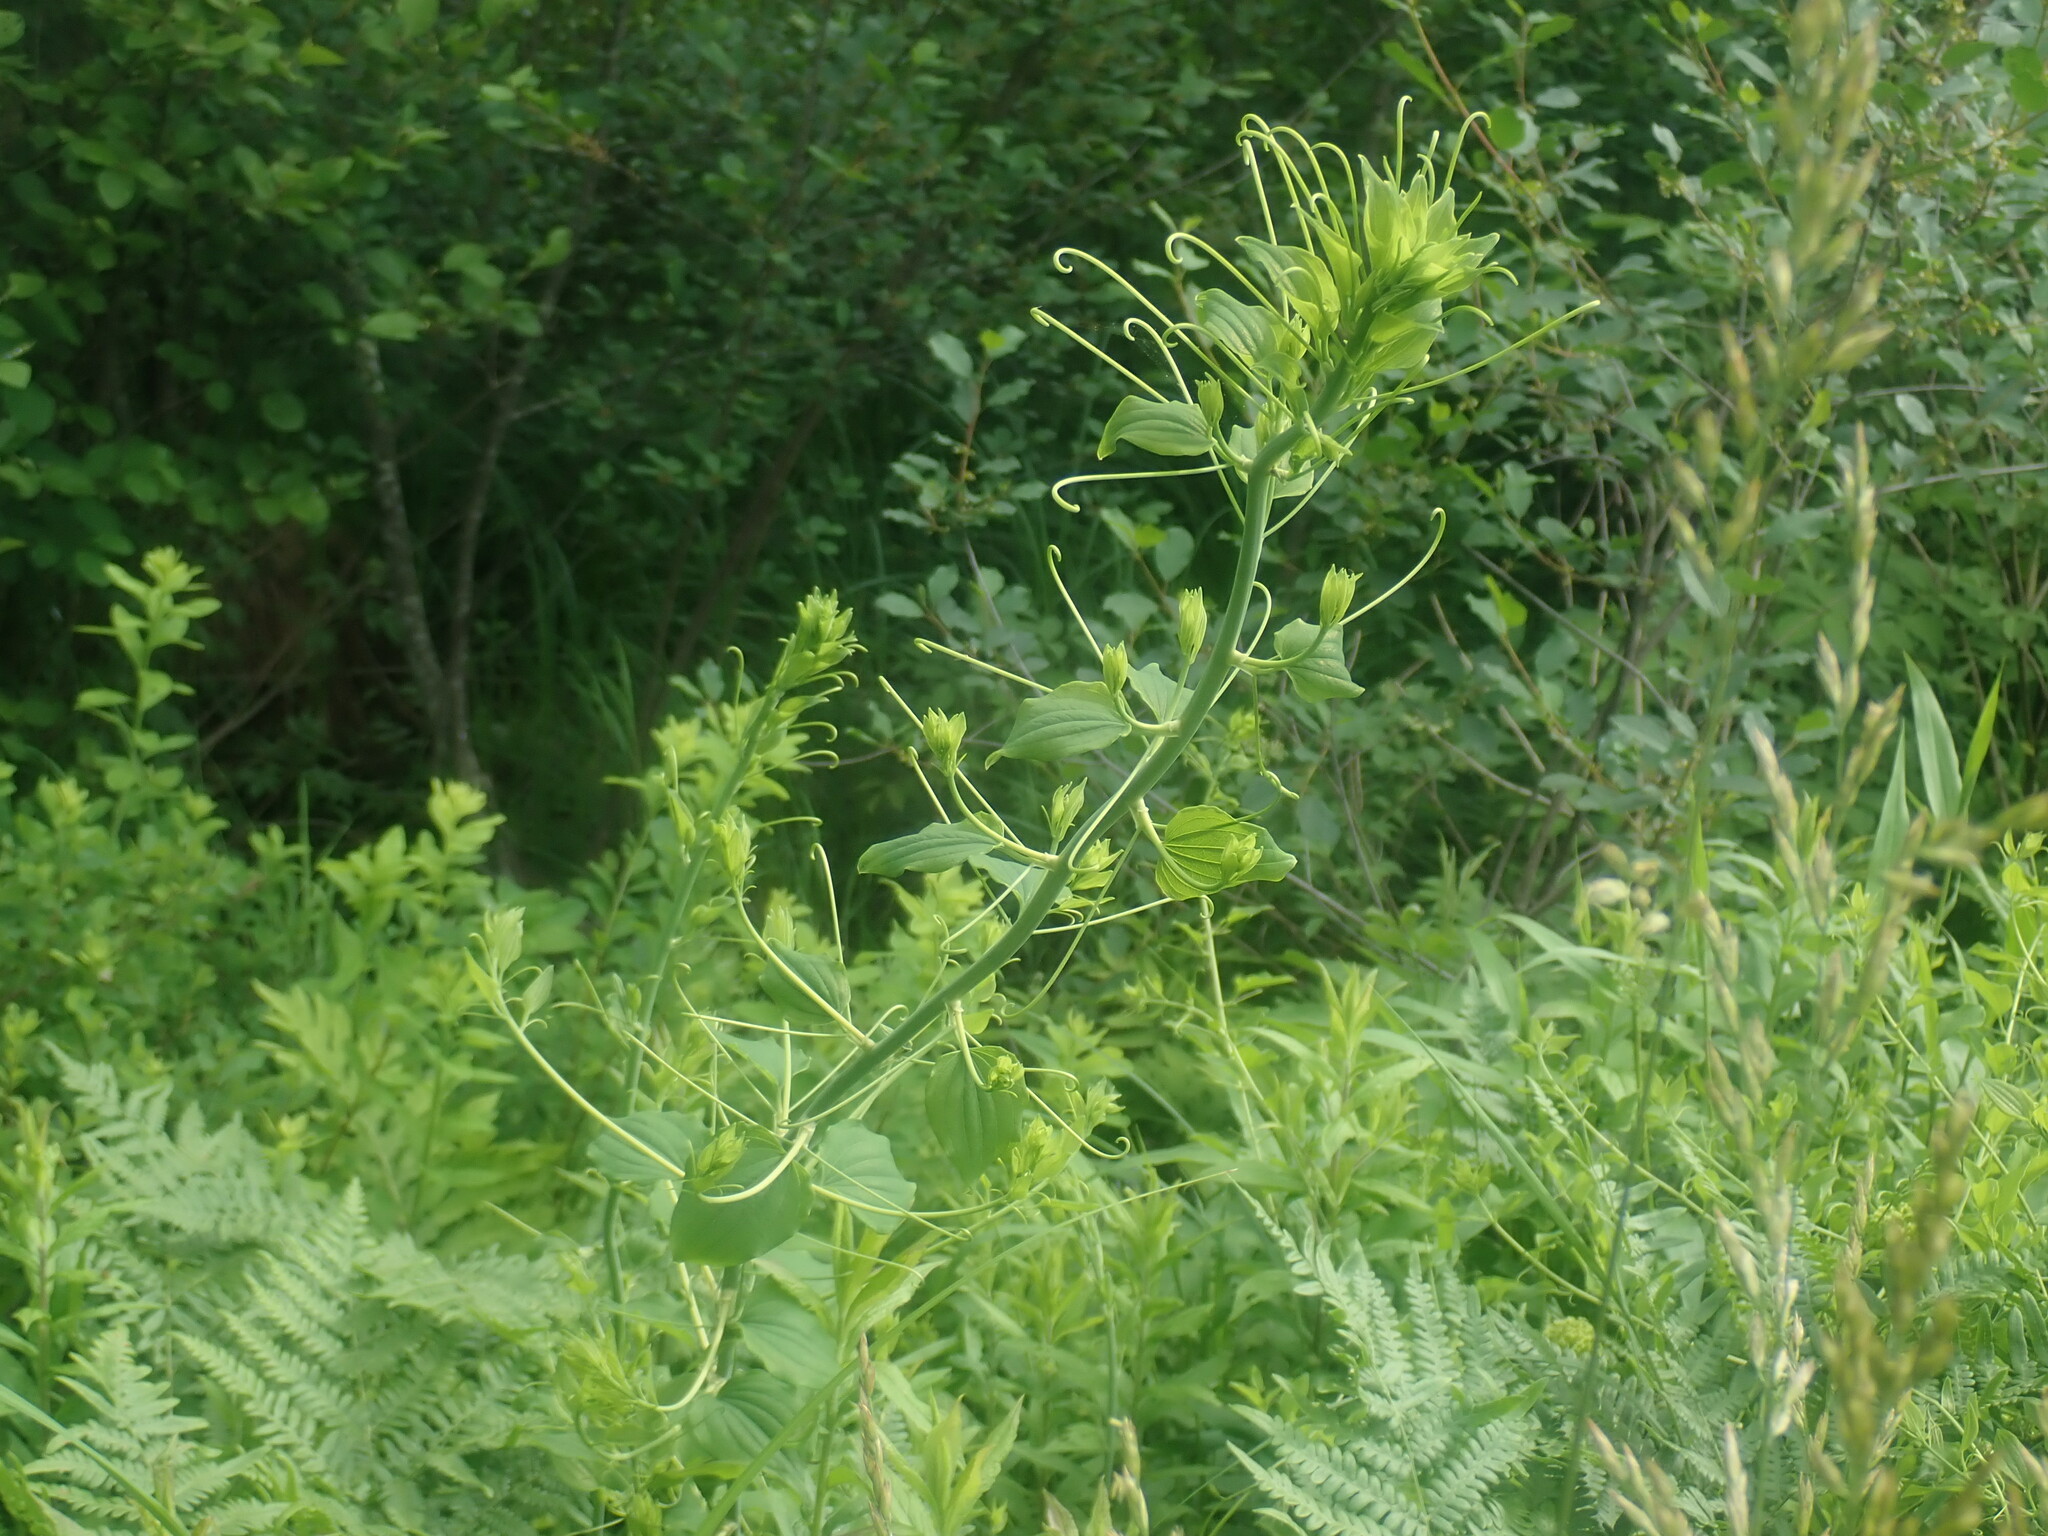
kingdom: Plantae
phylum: Tracheophyta
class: Liliopsida
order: Liliales
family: Smilacaceae
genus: Smilax
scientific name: Smilax herbacea
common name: Jacob's-ladder
